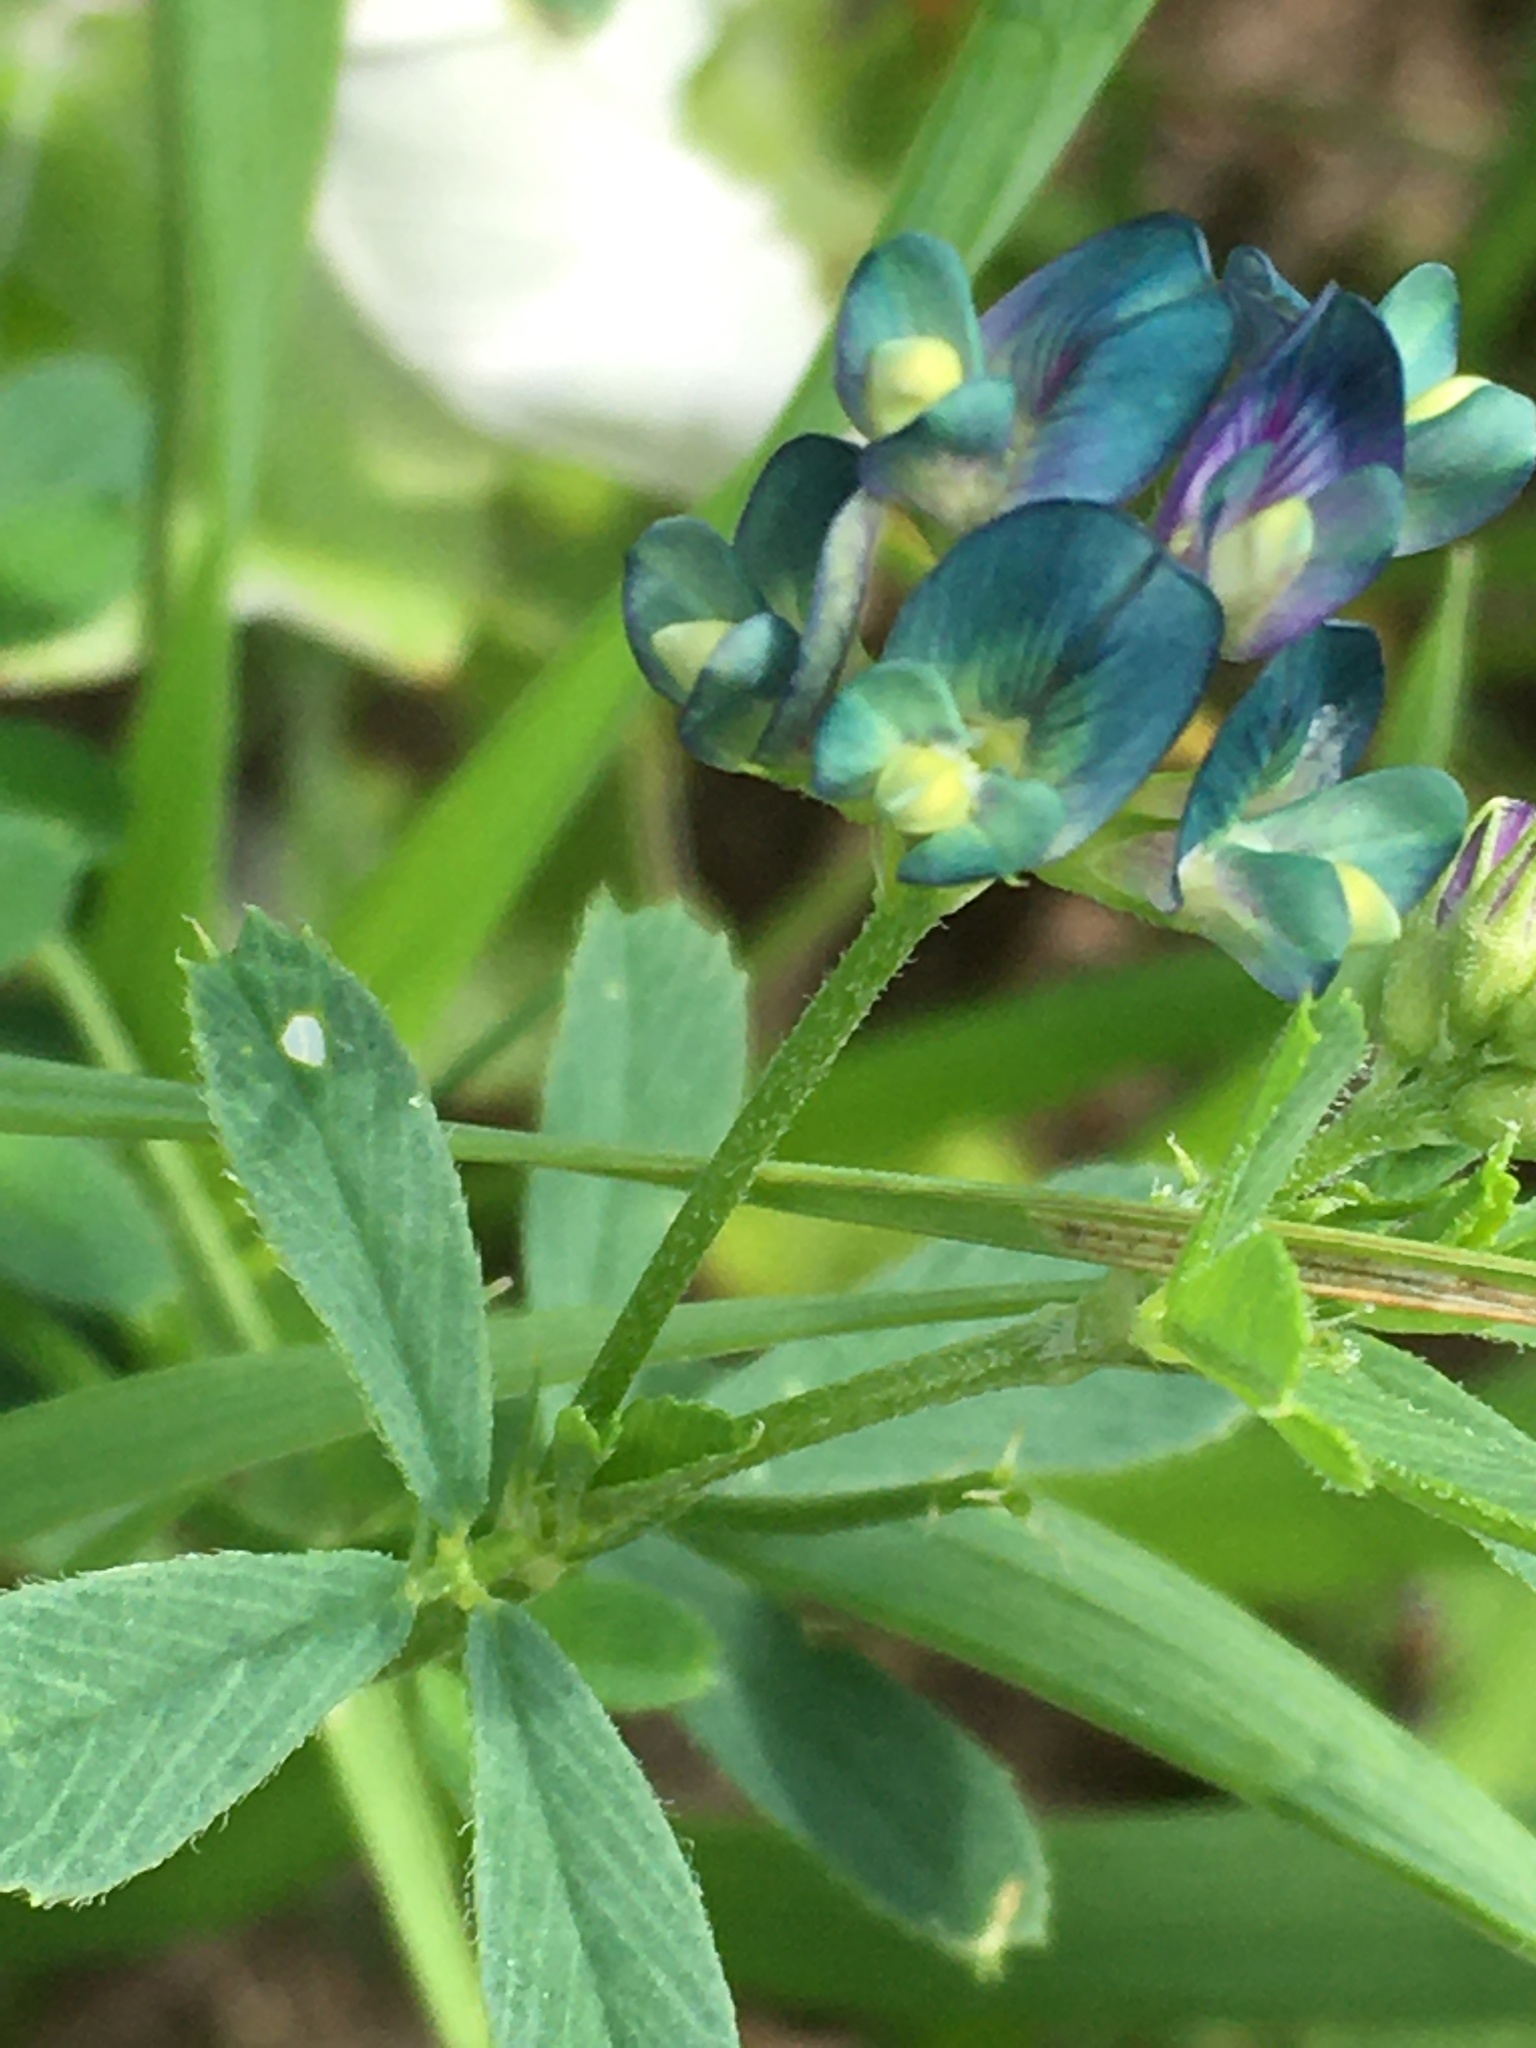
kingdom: Plantae
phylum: Tracheophyta
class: Magnoliopsida
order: Fabales
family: Fabaceae
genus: Medicago
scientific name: Medicago varia
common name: Sand lucerne
